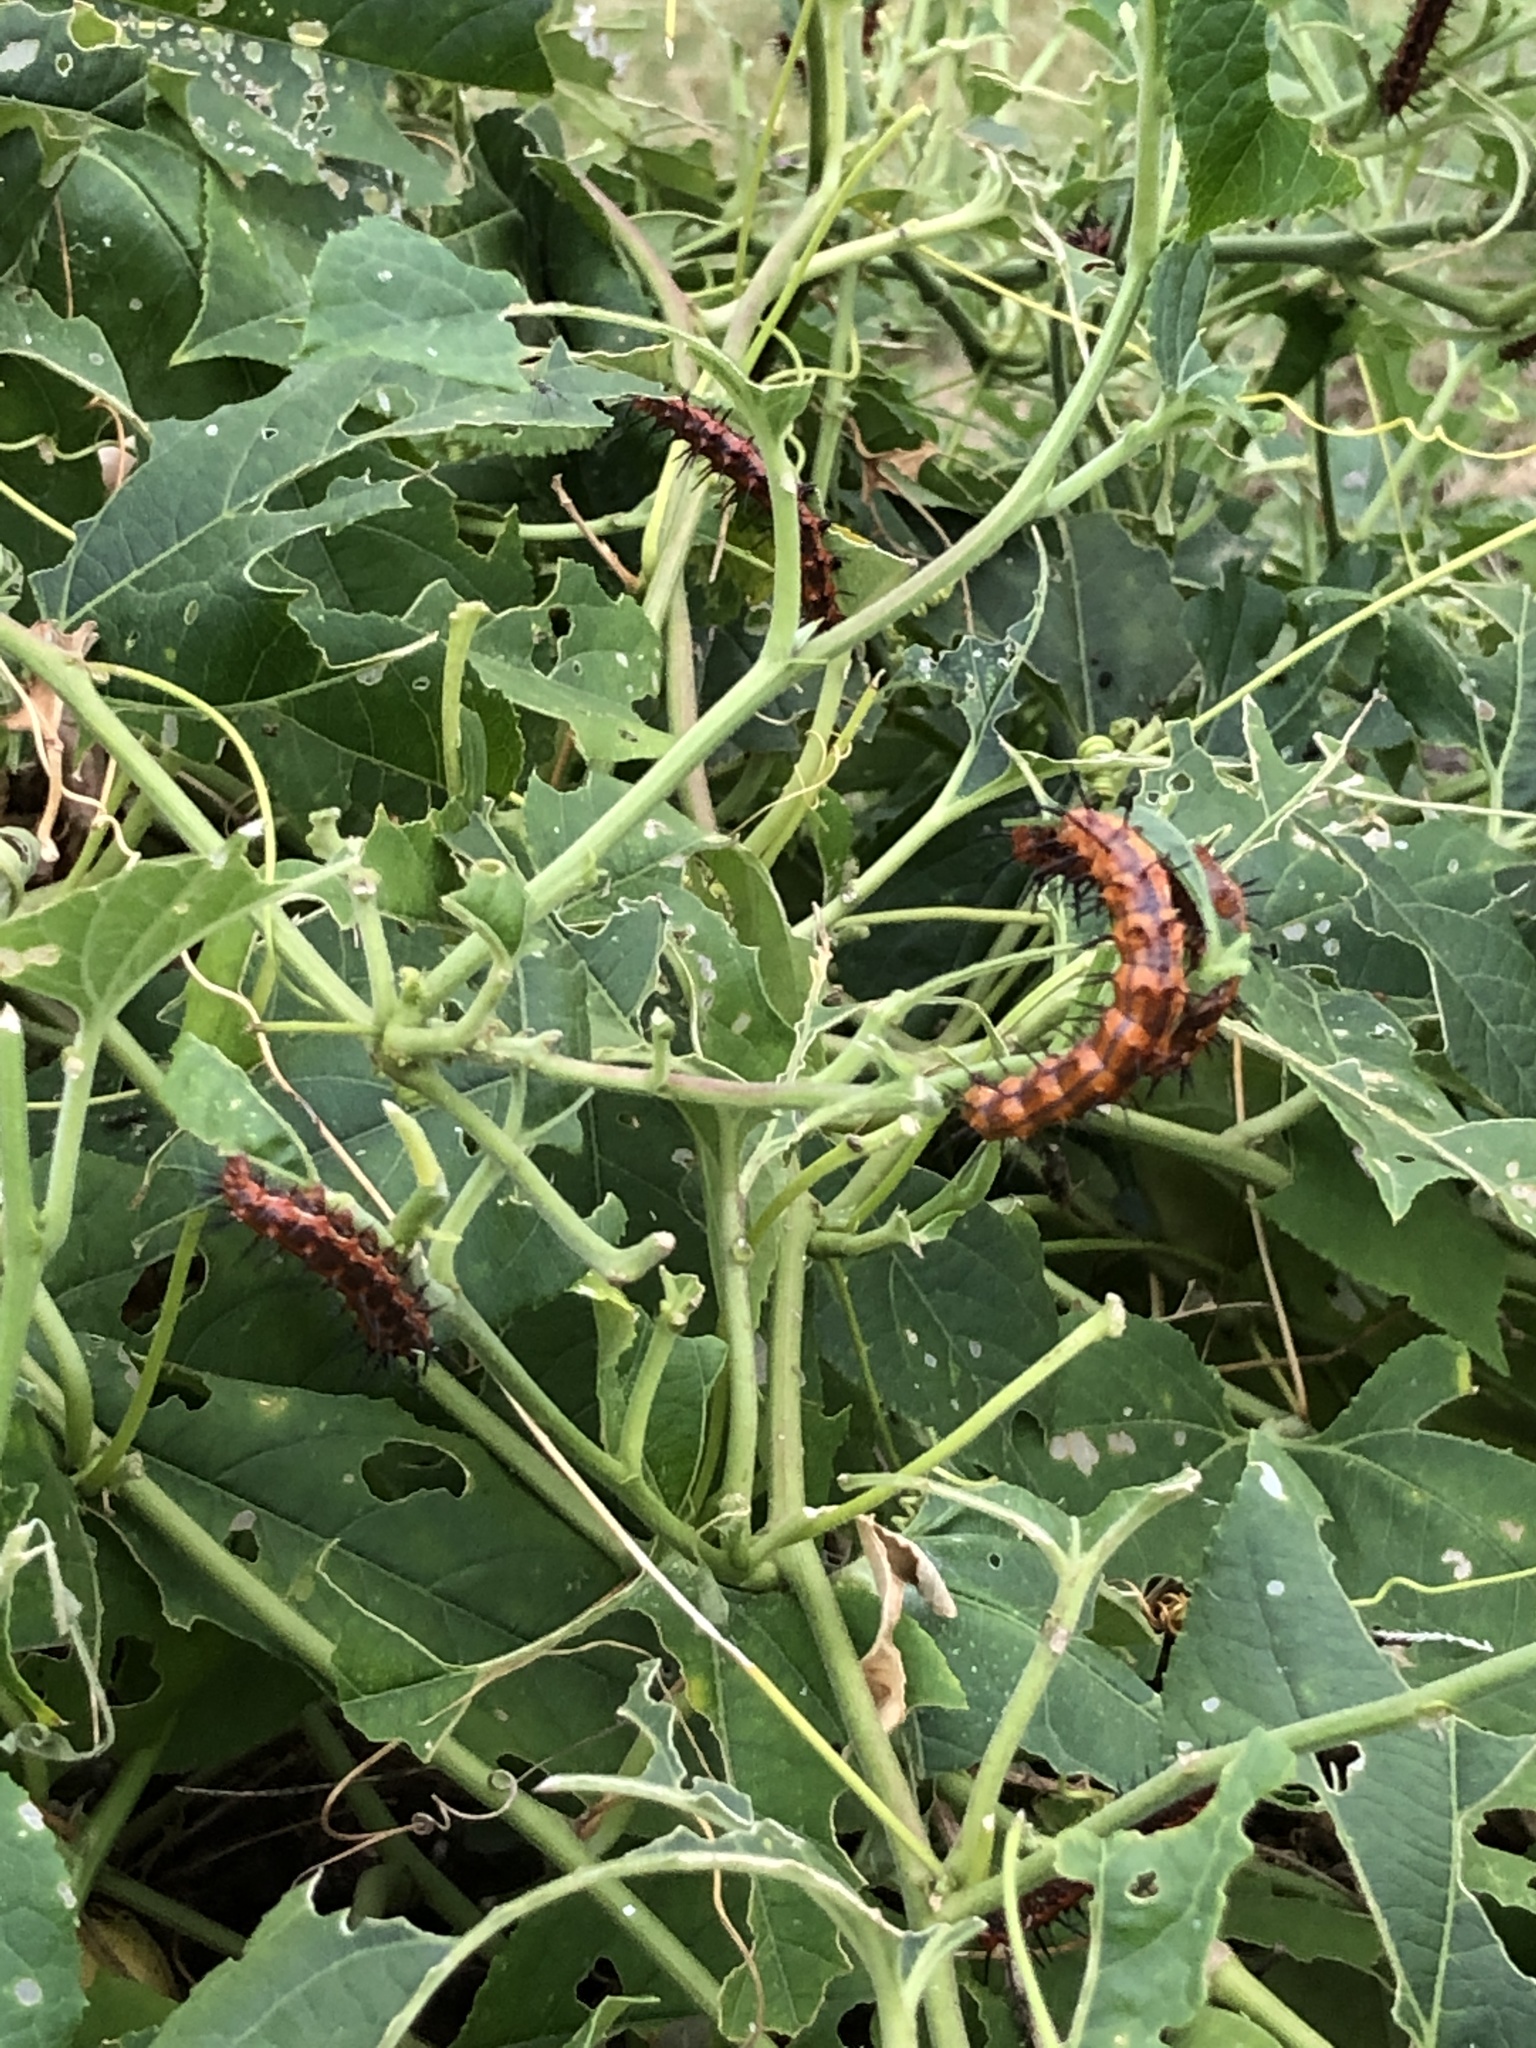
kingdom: Animalia
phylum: Arthropoda
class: Insecta
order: Lepidoptera
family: Nymphalidae
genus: Dione
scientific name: Dione vanillae
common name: Gulf fritillary
